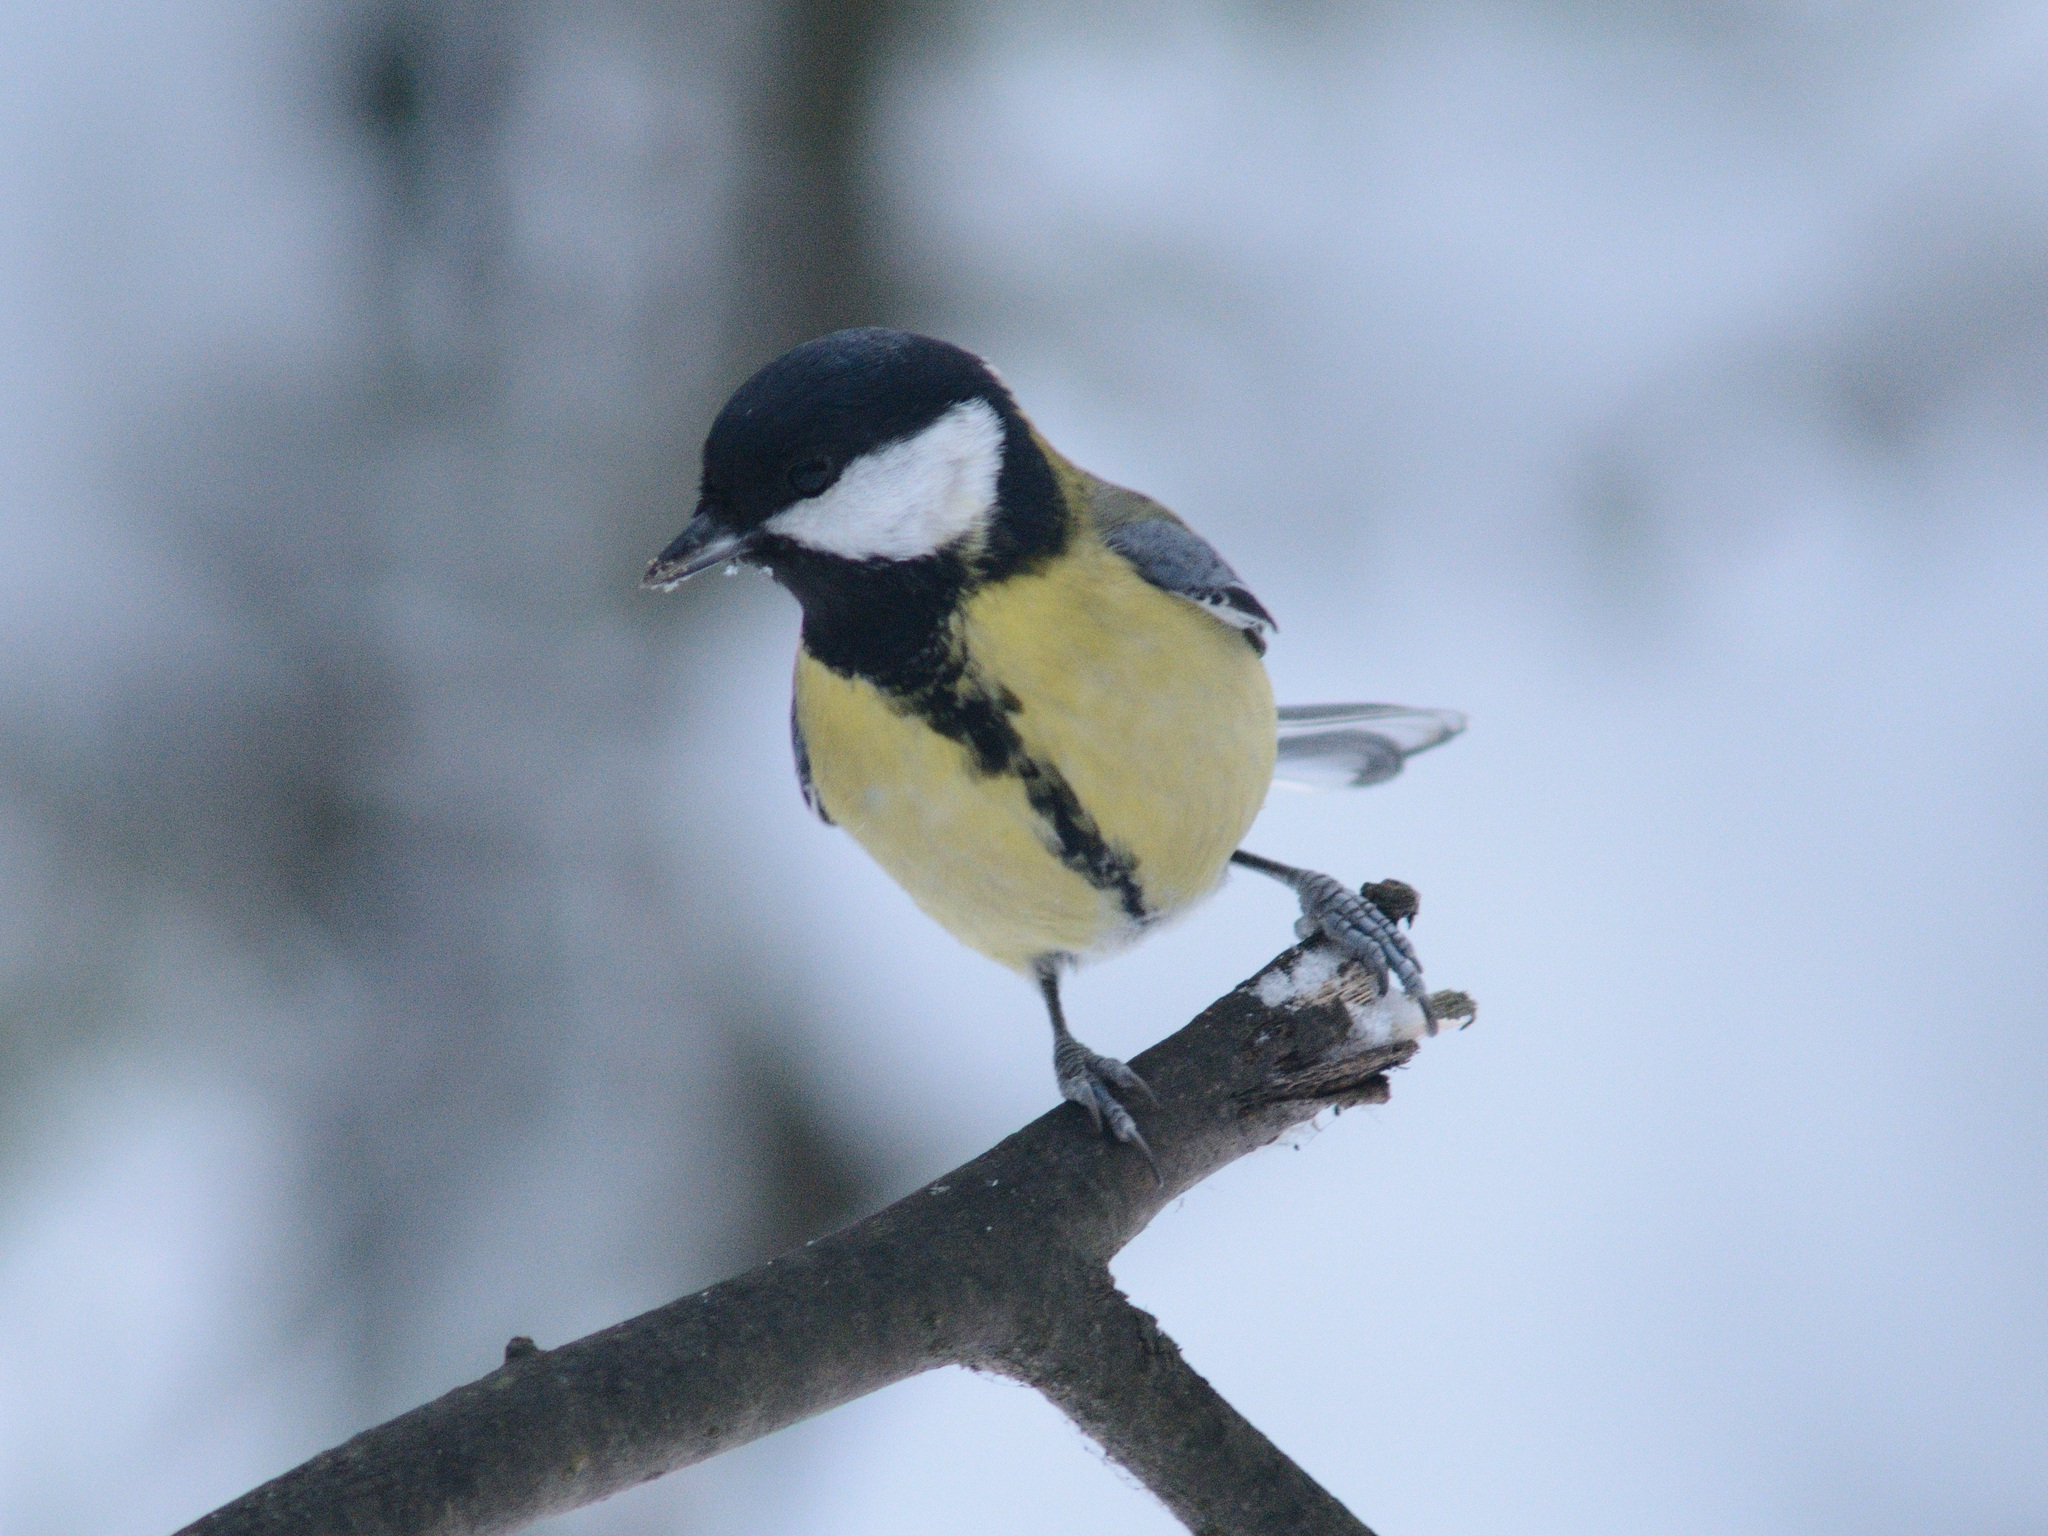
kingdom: Animalia
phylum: Chordata
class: Aves
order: Passeriformes
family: Paridae
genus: Parus
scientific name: Parus major
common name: Great tit
